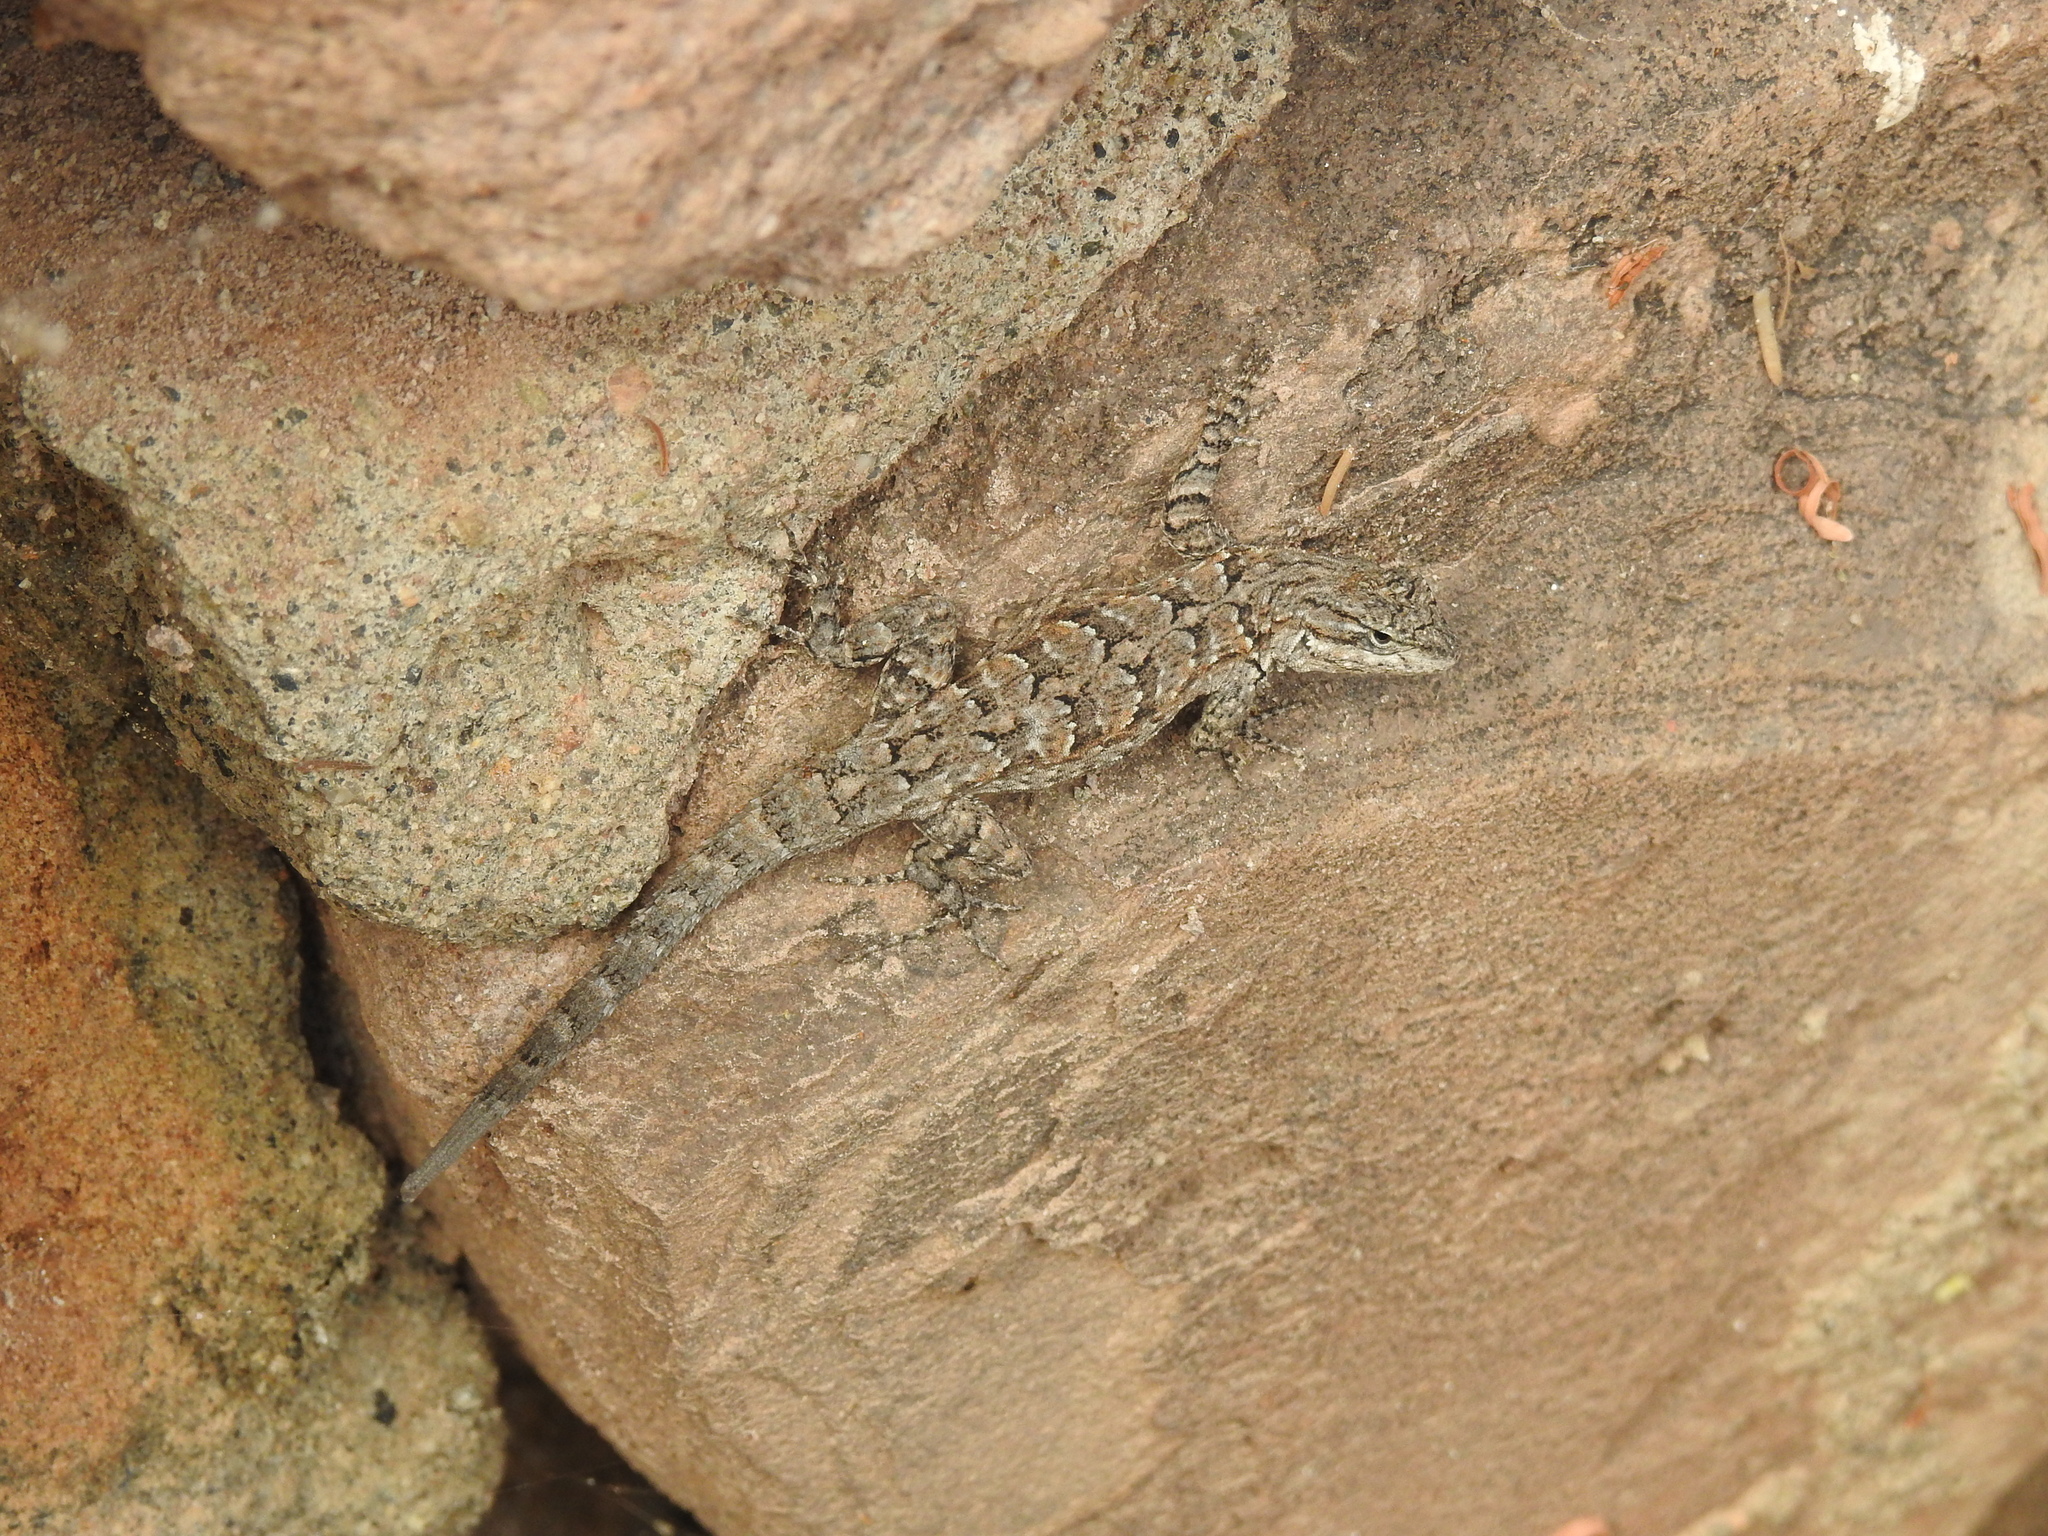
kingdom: Animalia
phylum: Chordata
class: Squamata
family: Phrynosomatidae
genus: Urosaurus
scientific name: Urosaurus ornatus
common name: Ornate tree lizard
